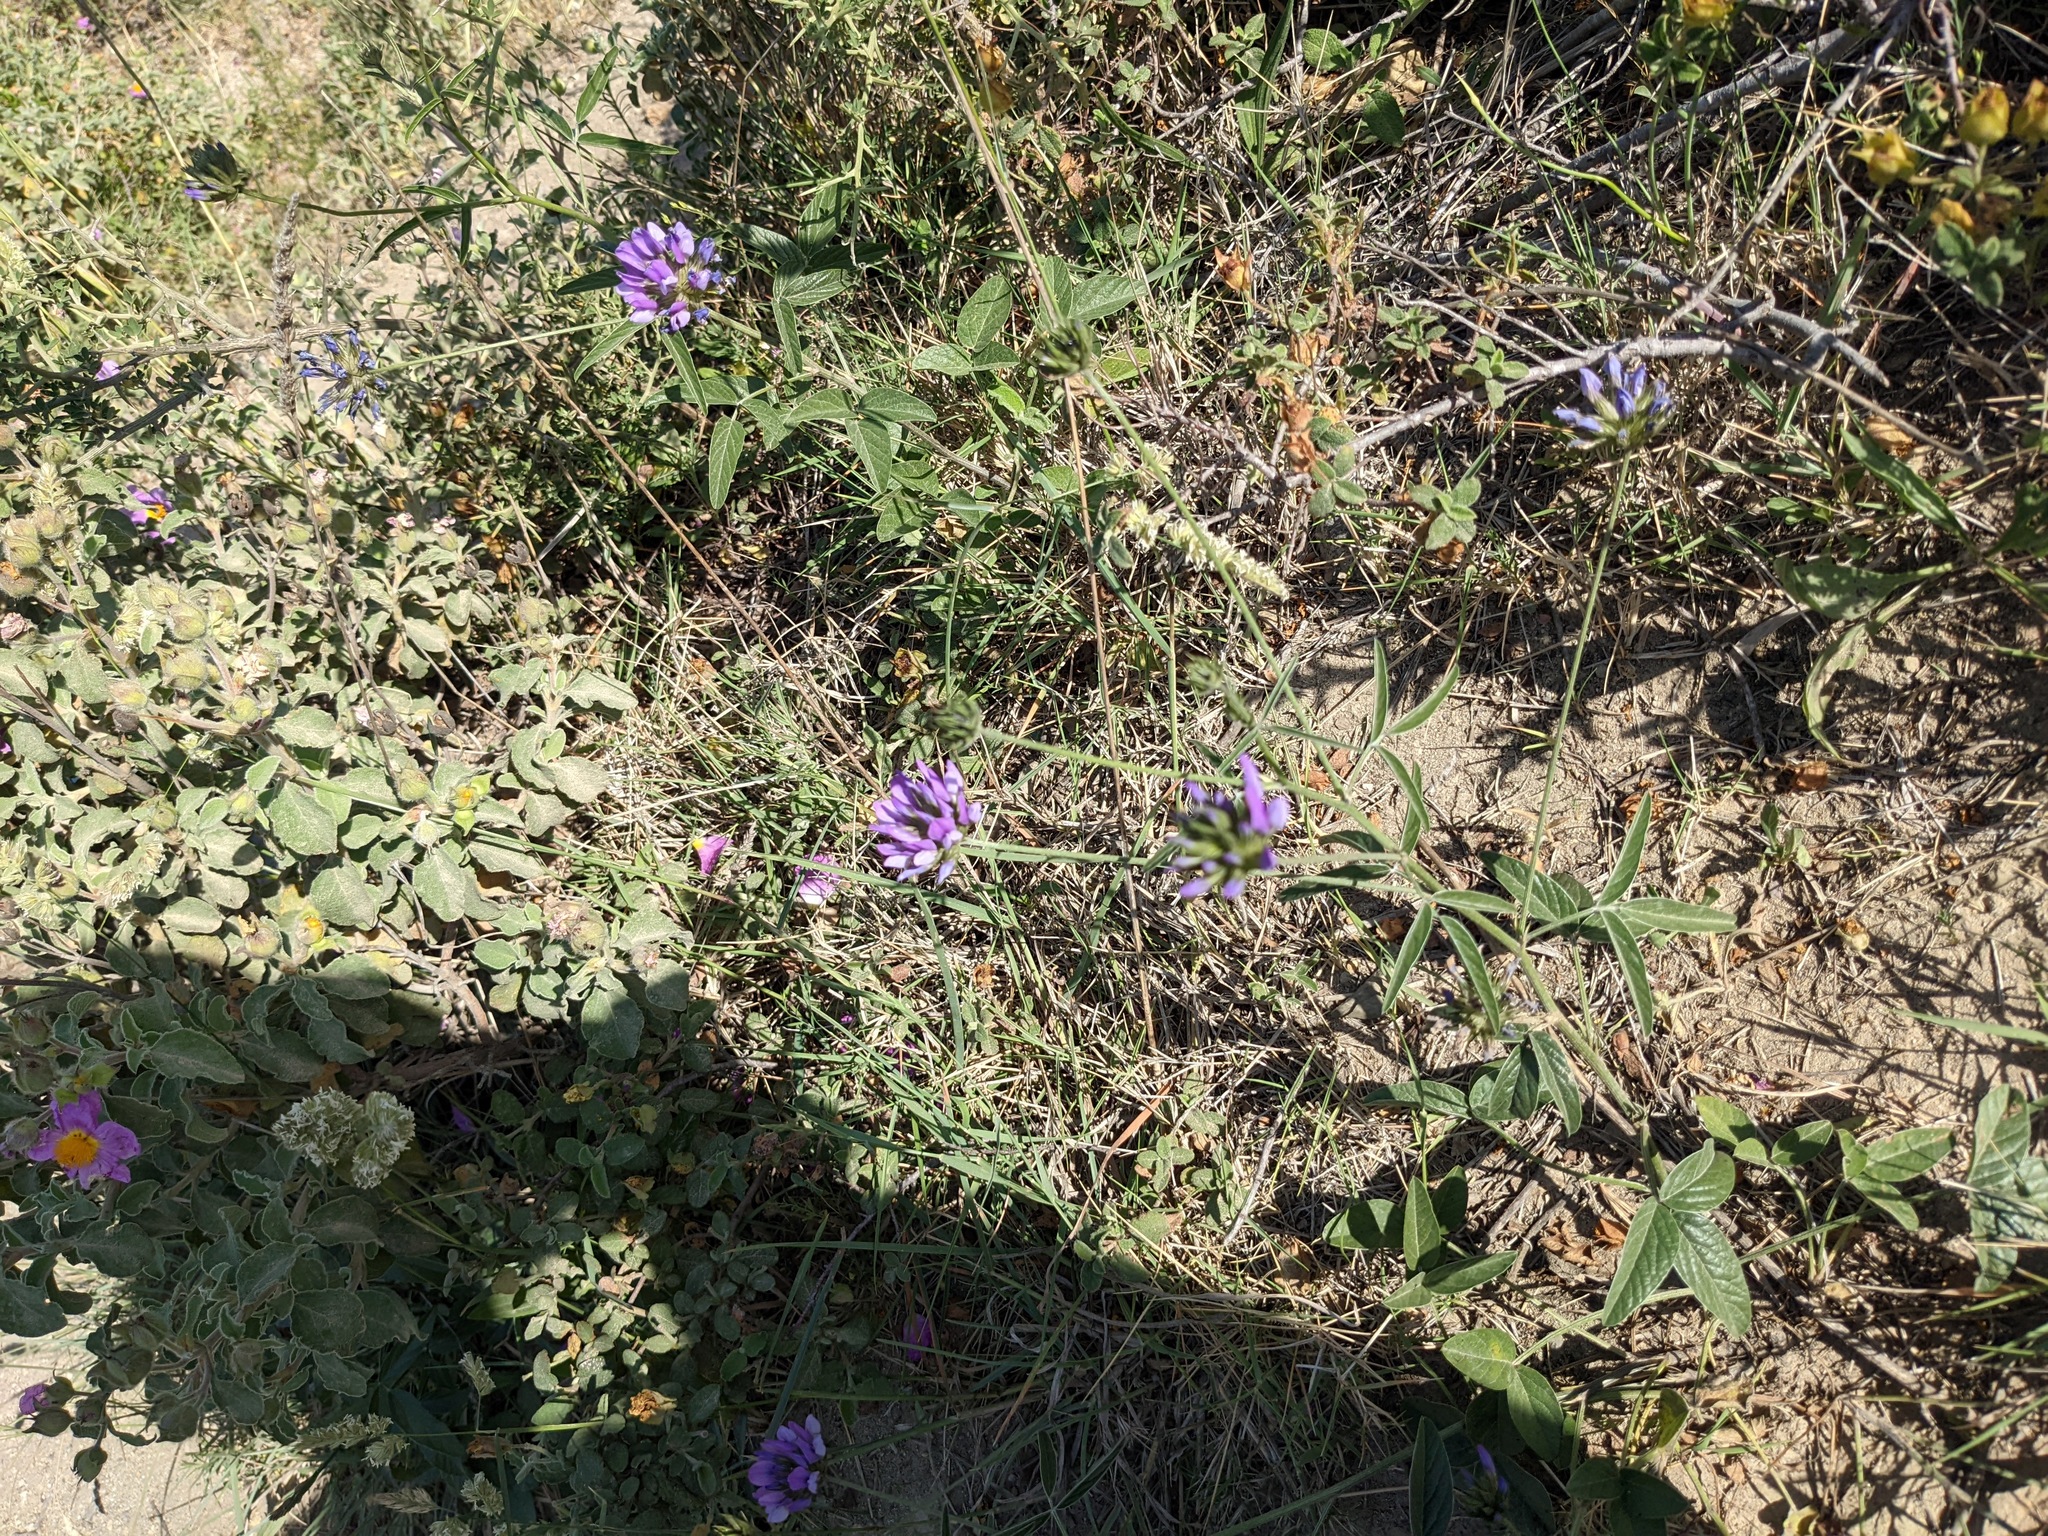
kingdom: Plantae
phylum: Tracheophyta
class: Magnoliopsida
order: Fabales
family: Fabaceae
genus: Bituminaria
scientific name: Bituminaria bituminosa
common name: Arabian pea
